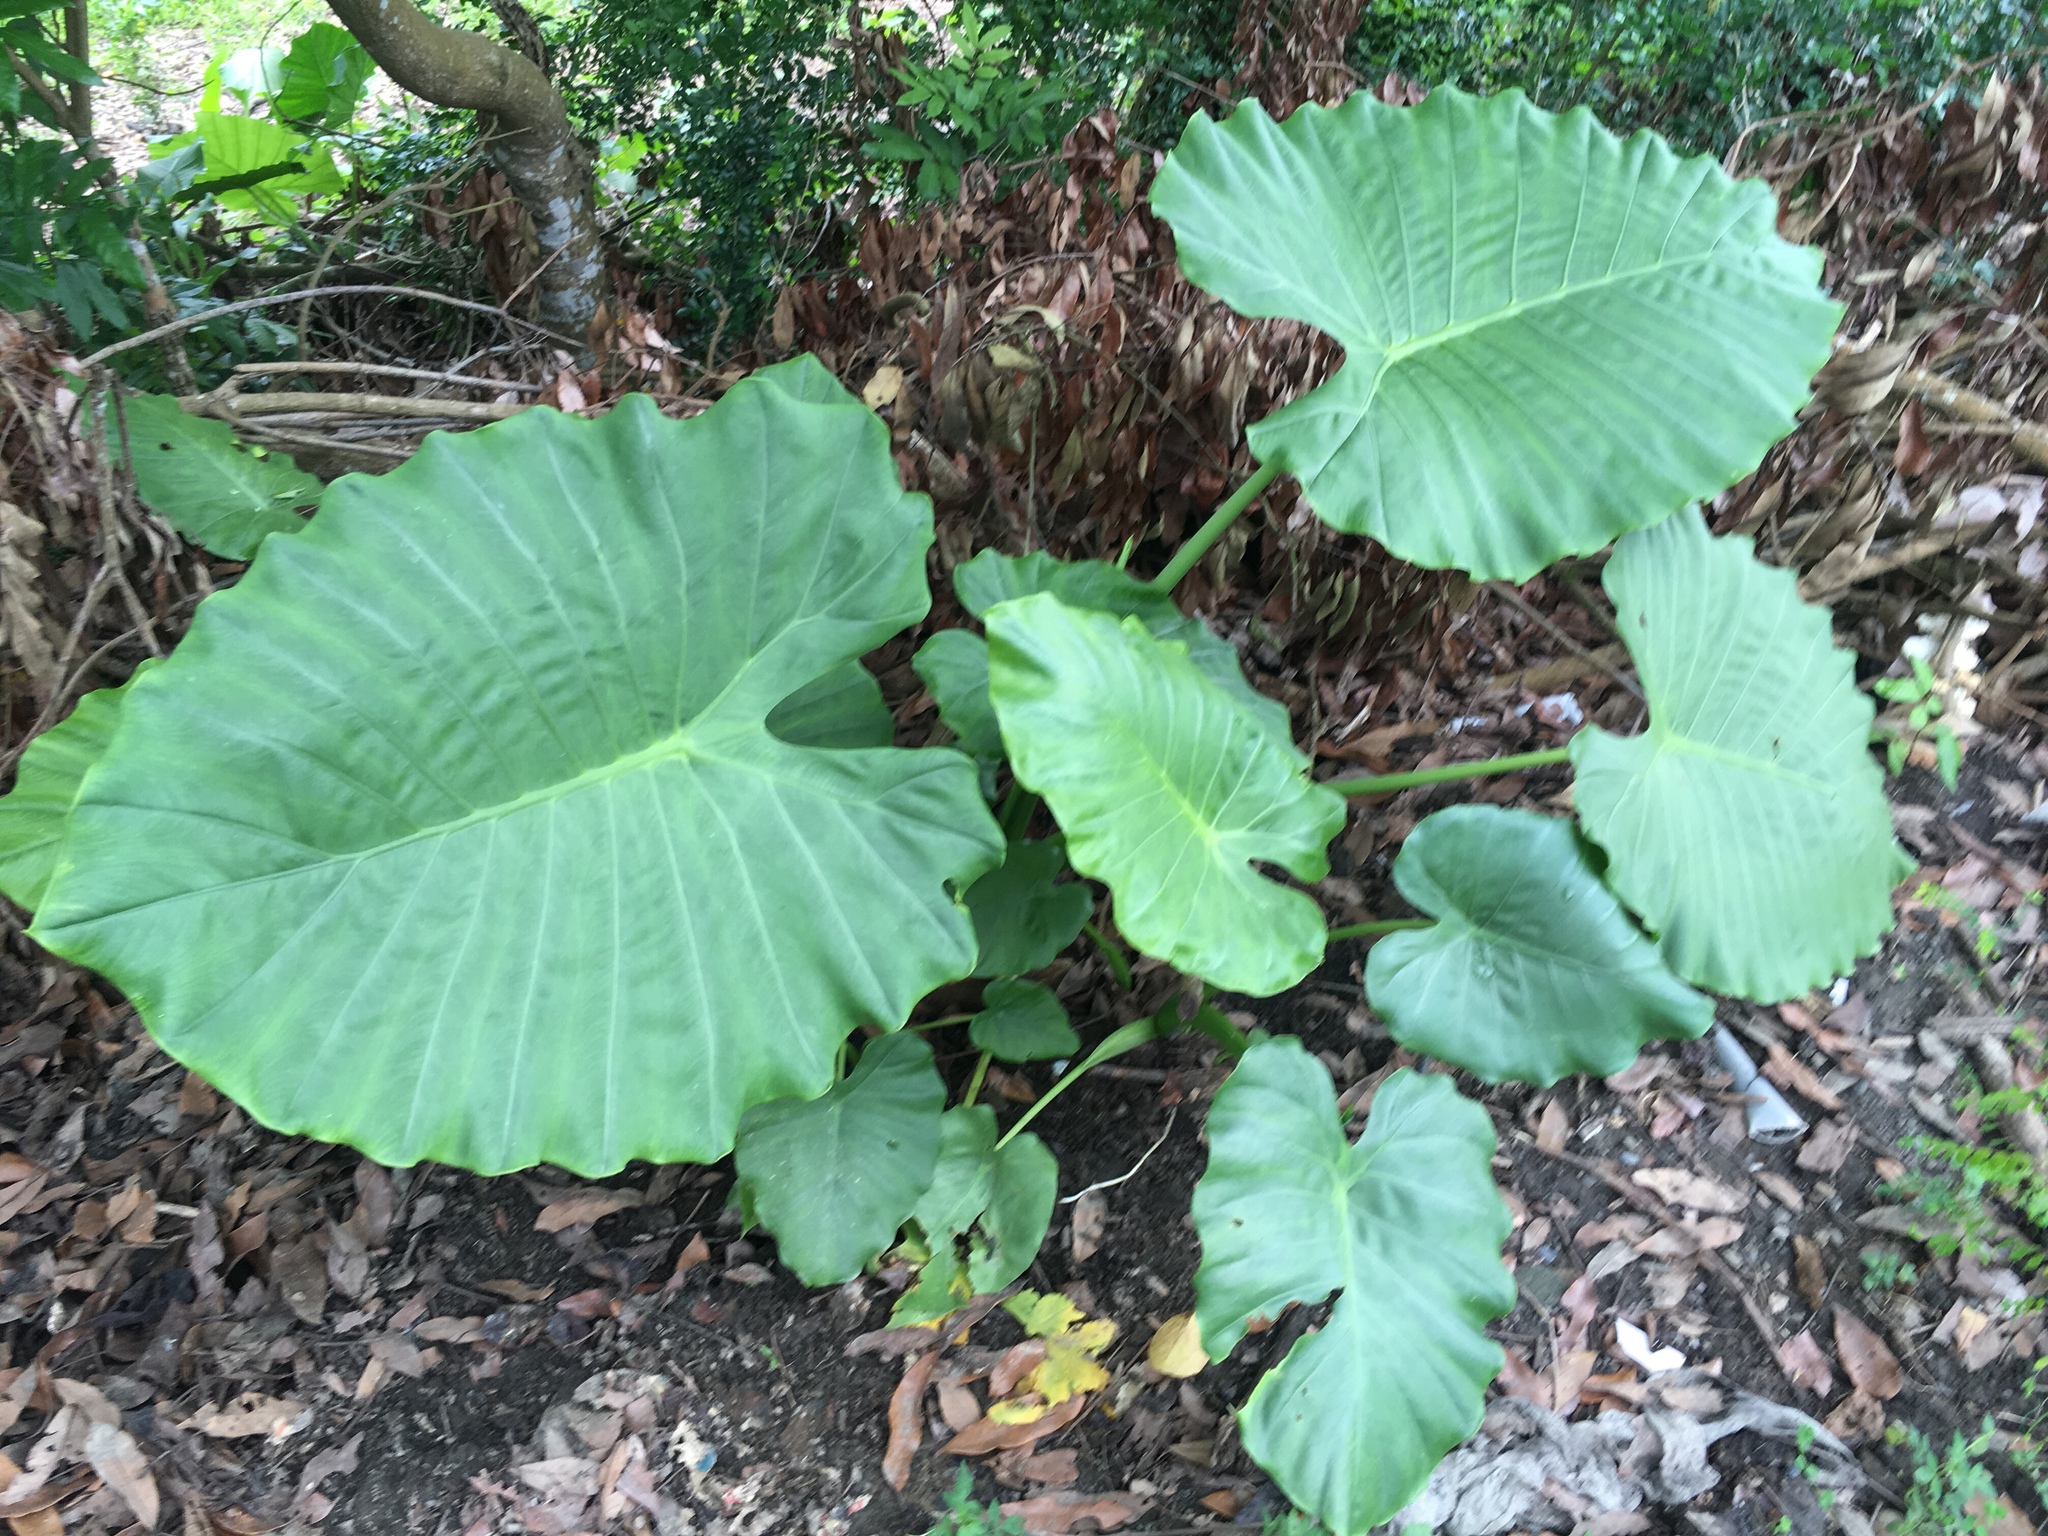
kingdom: Plantae
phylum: Tracheophyta
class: Liliopsida
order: Alismatales
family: Araceae
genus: Alocasia
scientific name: Alocasia odora
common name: Asian taro
